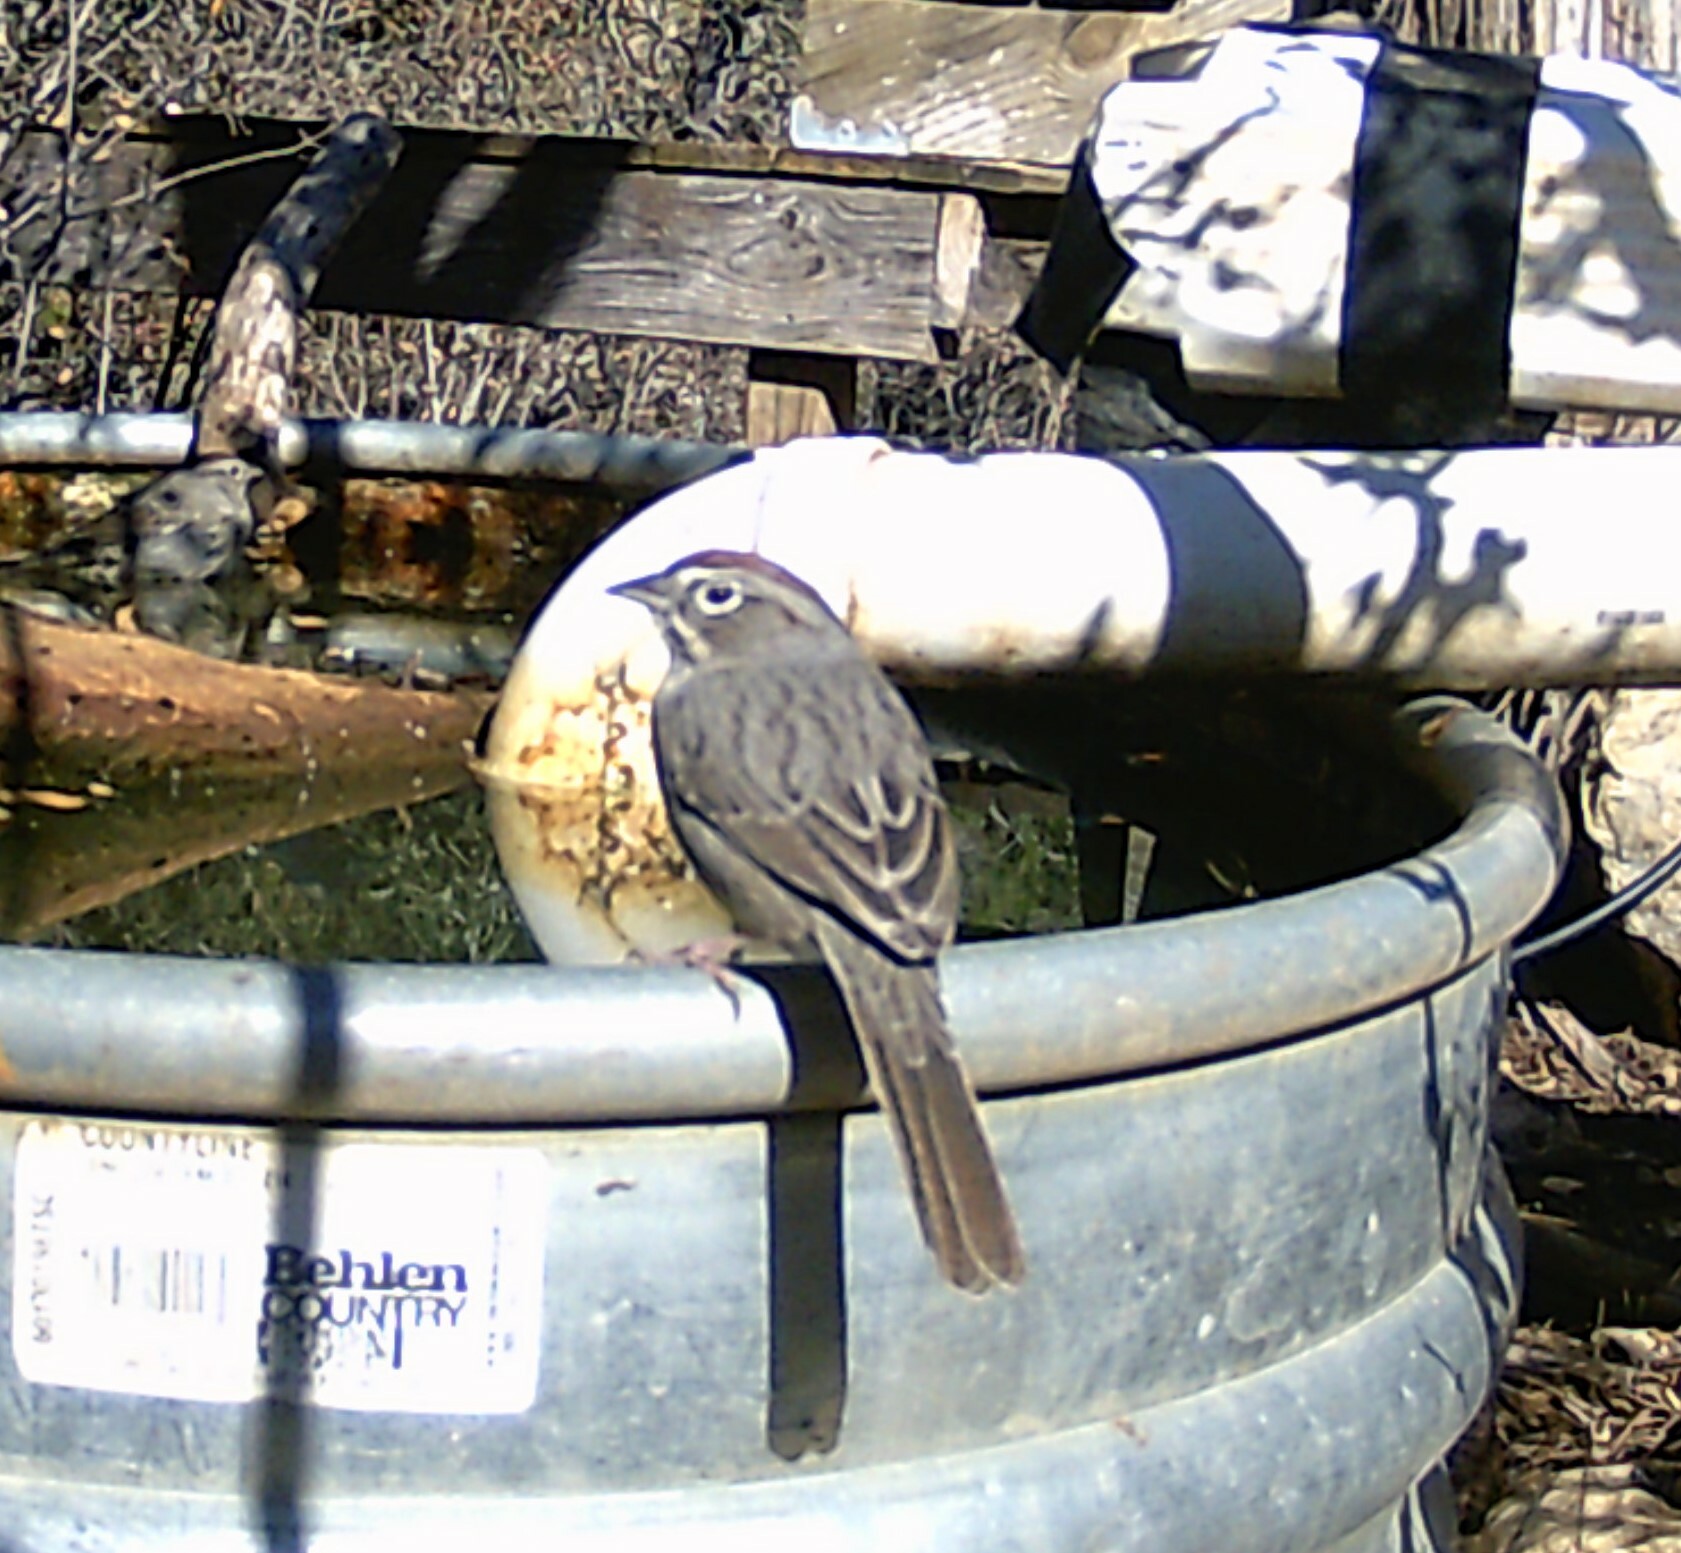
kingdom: Animalia
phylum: Chordata
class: Aves
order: Passeriformes
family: Passerellidae
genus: Aimophila
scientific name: Aimophila ruficeps
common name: Rufous-crowned sparrow
